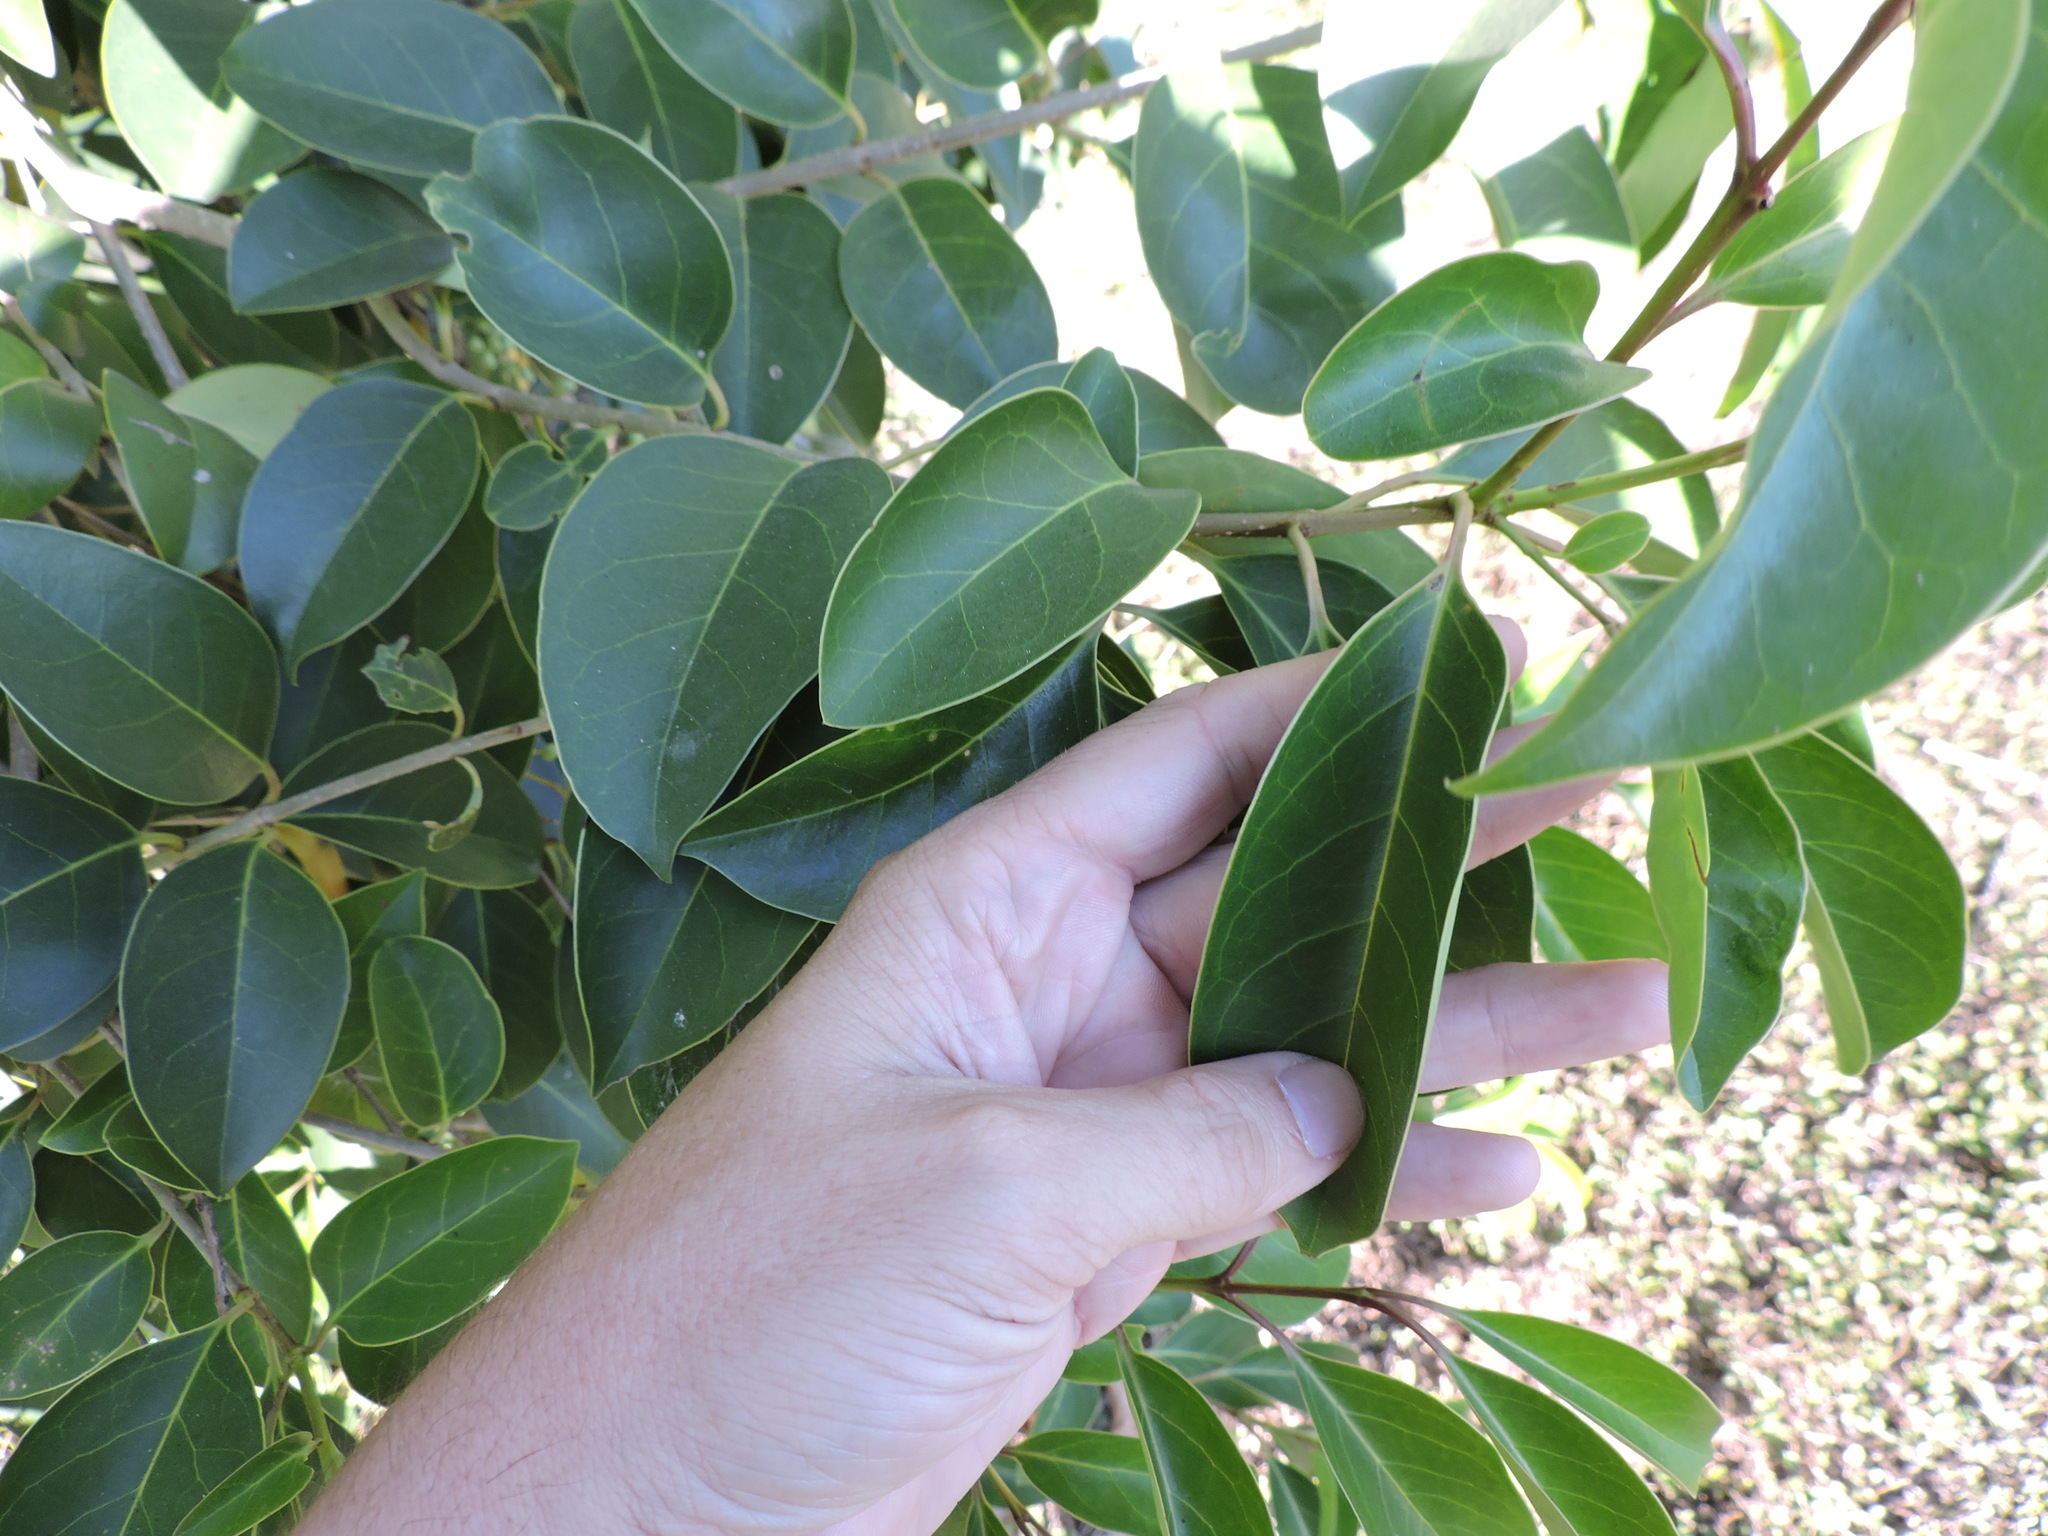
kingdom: Plantae
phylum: Tracheophyta
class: Magnoliopsida
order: Lamiales
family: Oleaceae
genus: Ligustrum
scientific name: Ligustrum lucidum
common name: Glossy privet
